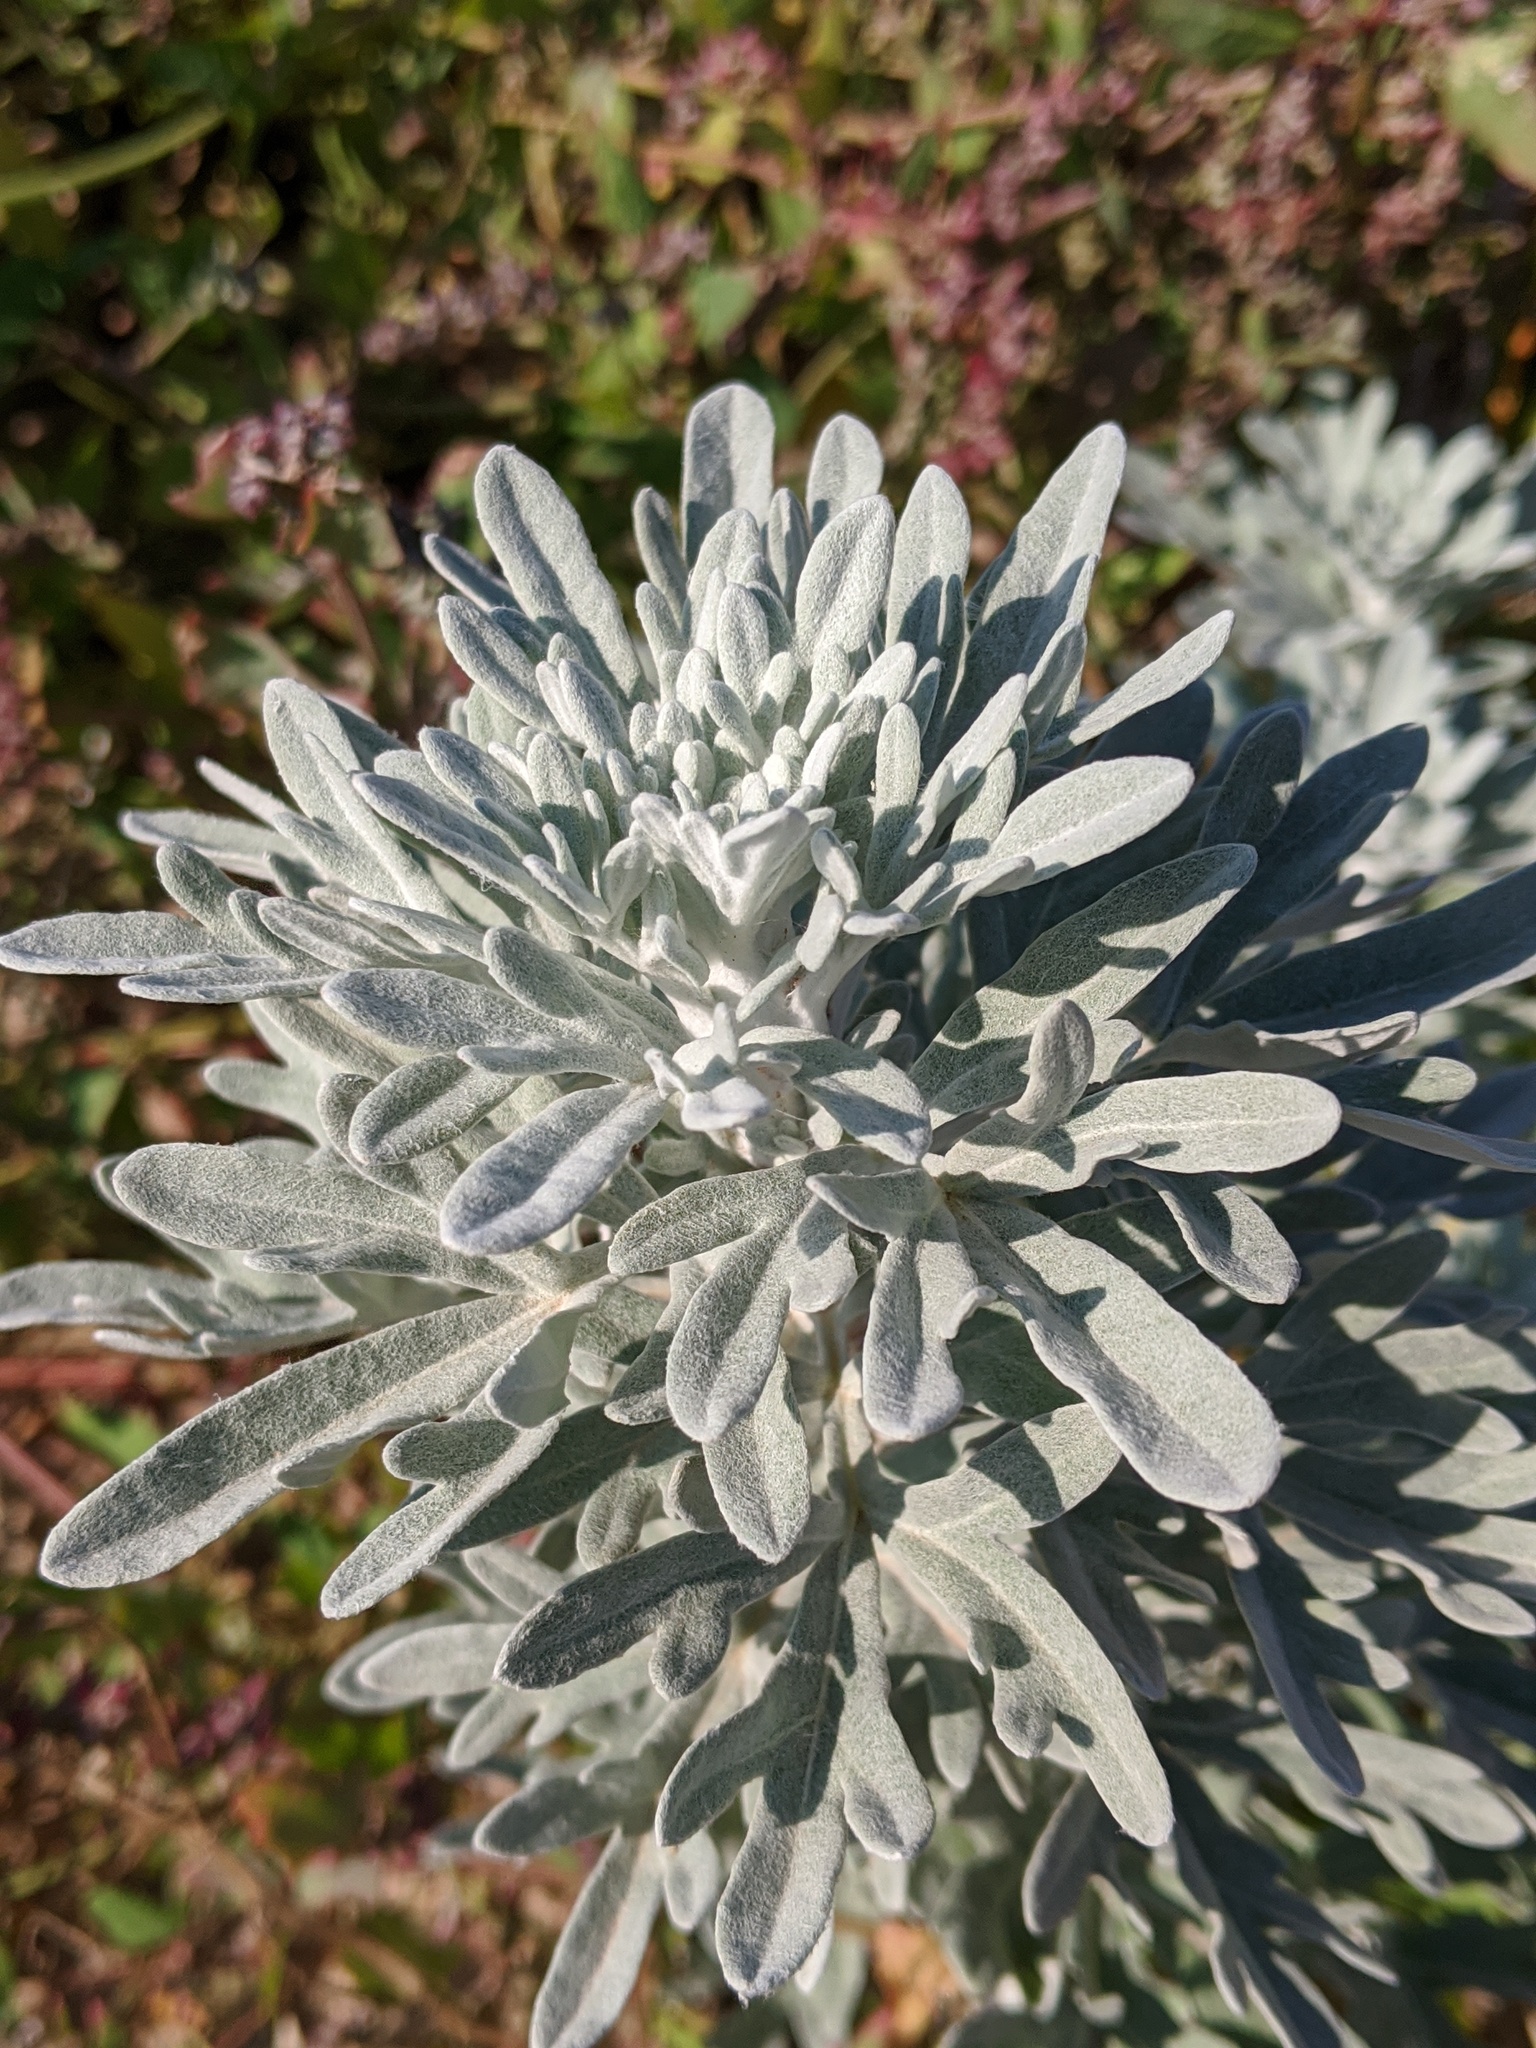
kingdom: Plantae
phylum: Tracheophyta
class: Magnoliopsida
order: Asterales
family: Asteraceae
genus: Artemisia
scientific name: Artemisia stelleriana
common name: Beach wormwood
